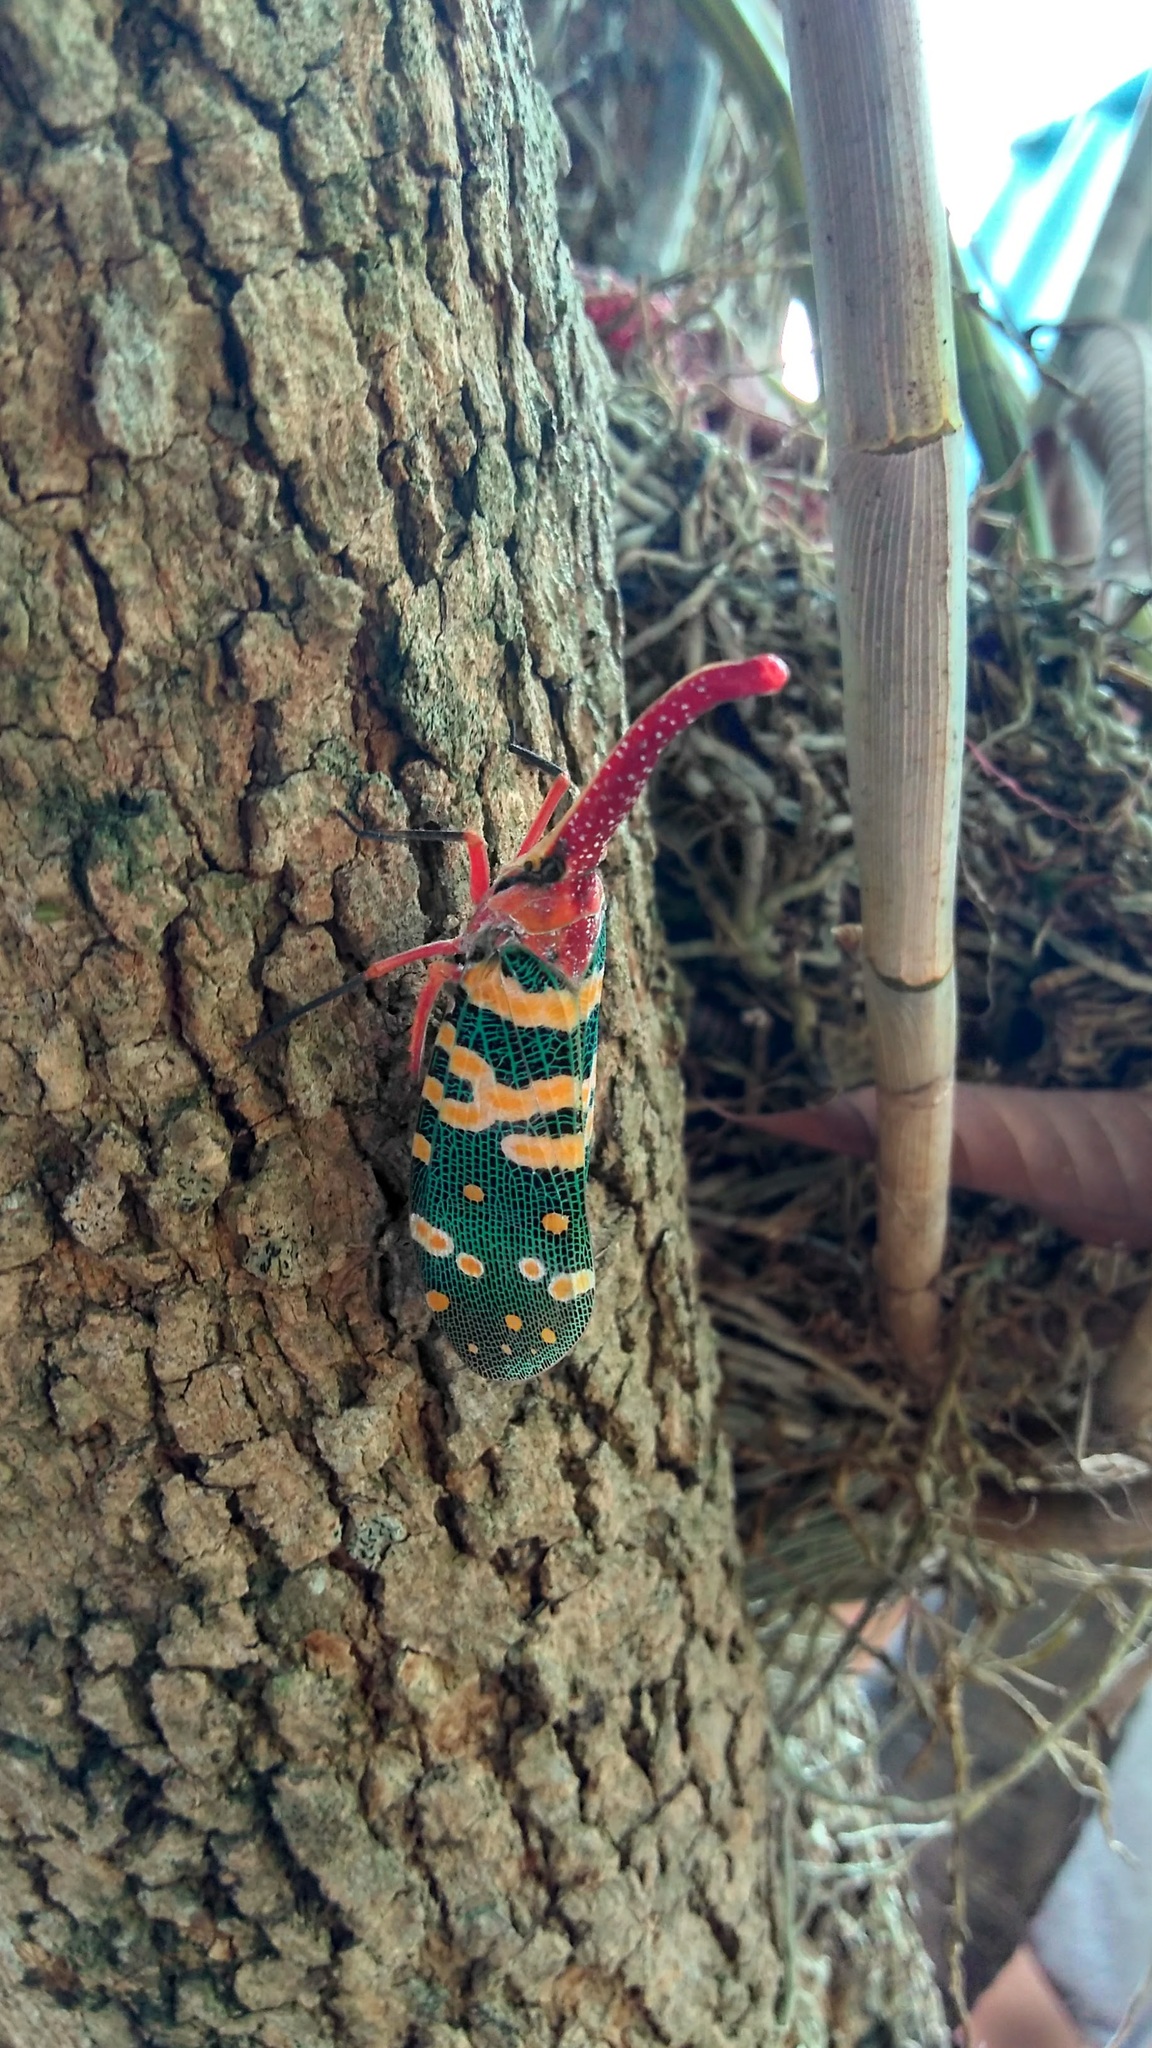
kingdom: Animalia
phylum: Arthropoda
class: Insecta
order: Hemiptera
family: Fulgoridae
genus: Pyrops
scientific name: Pyrops candelaria
